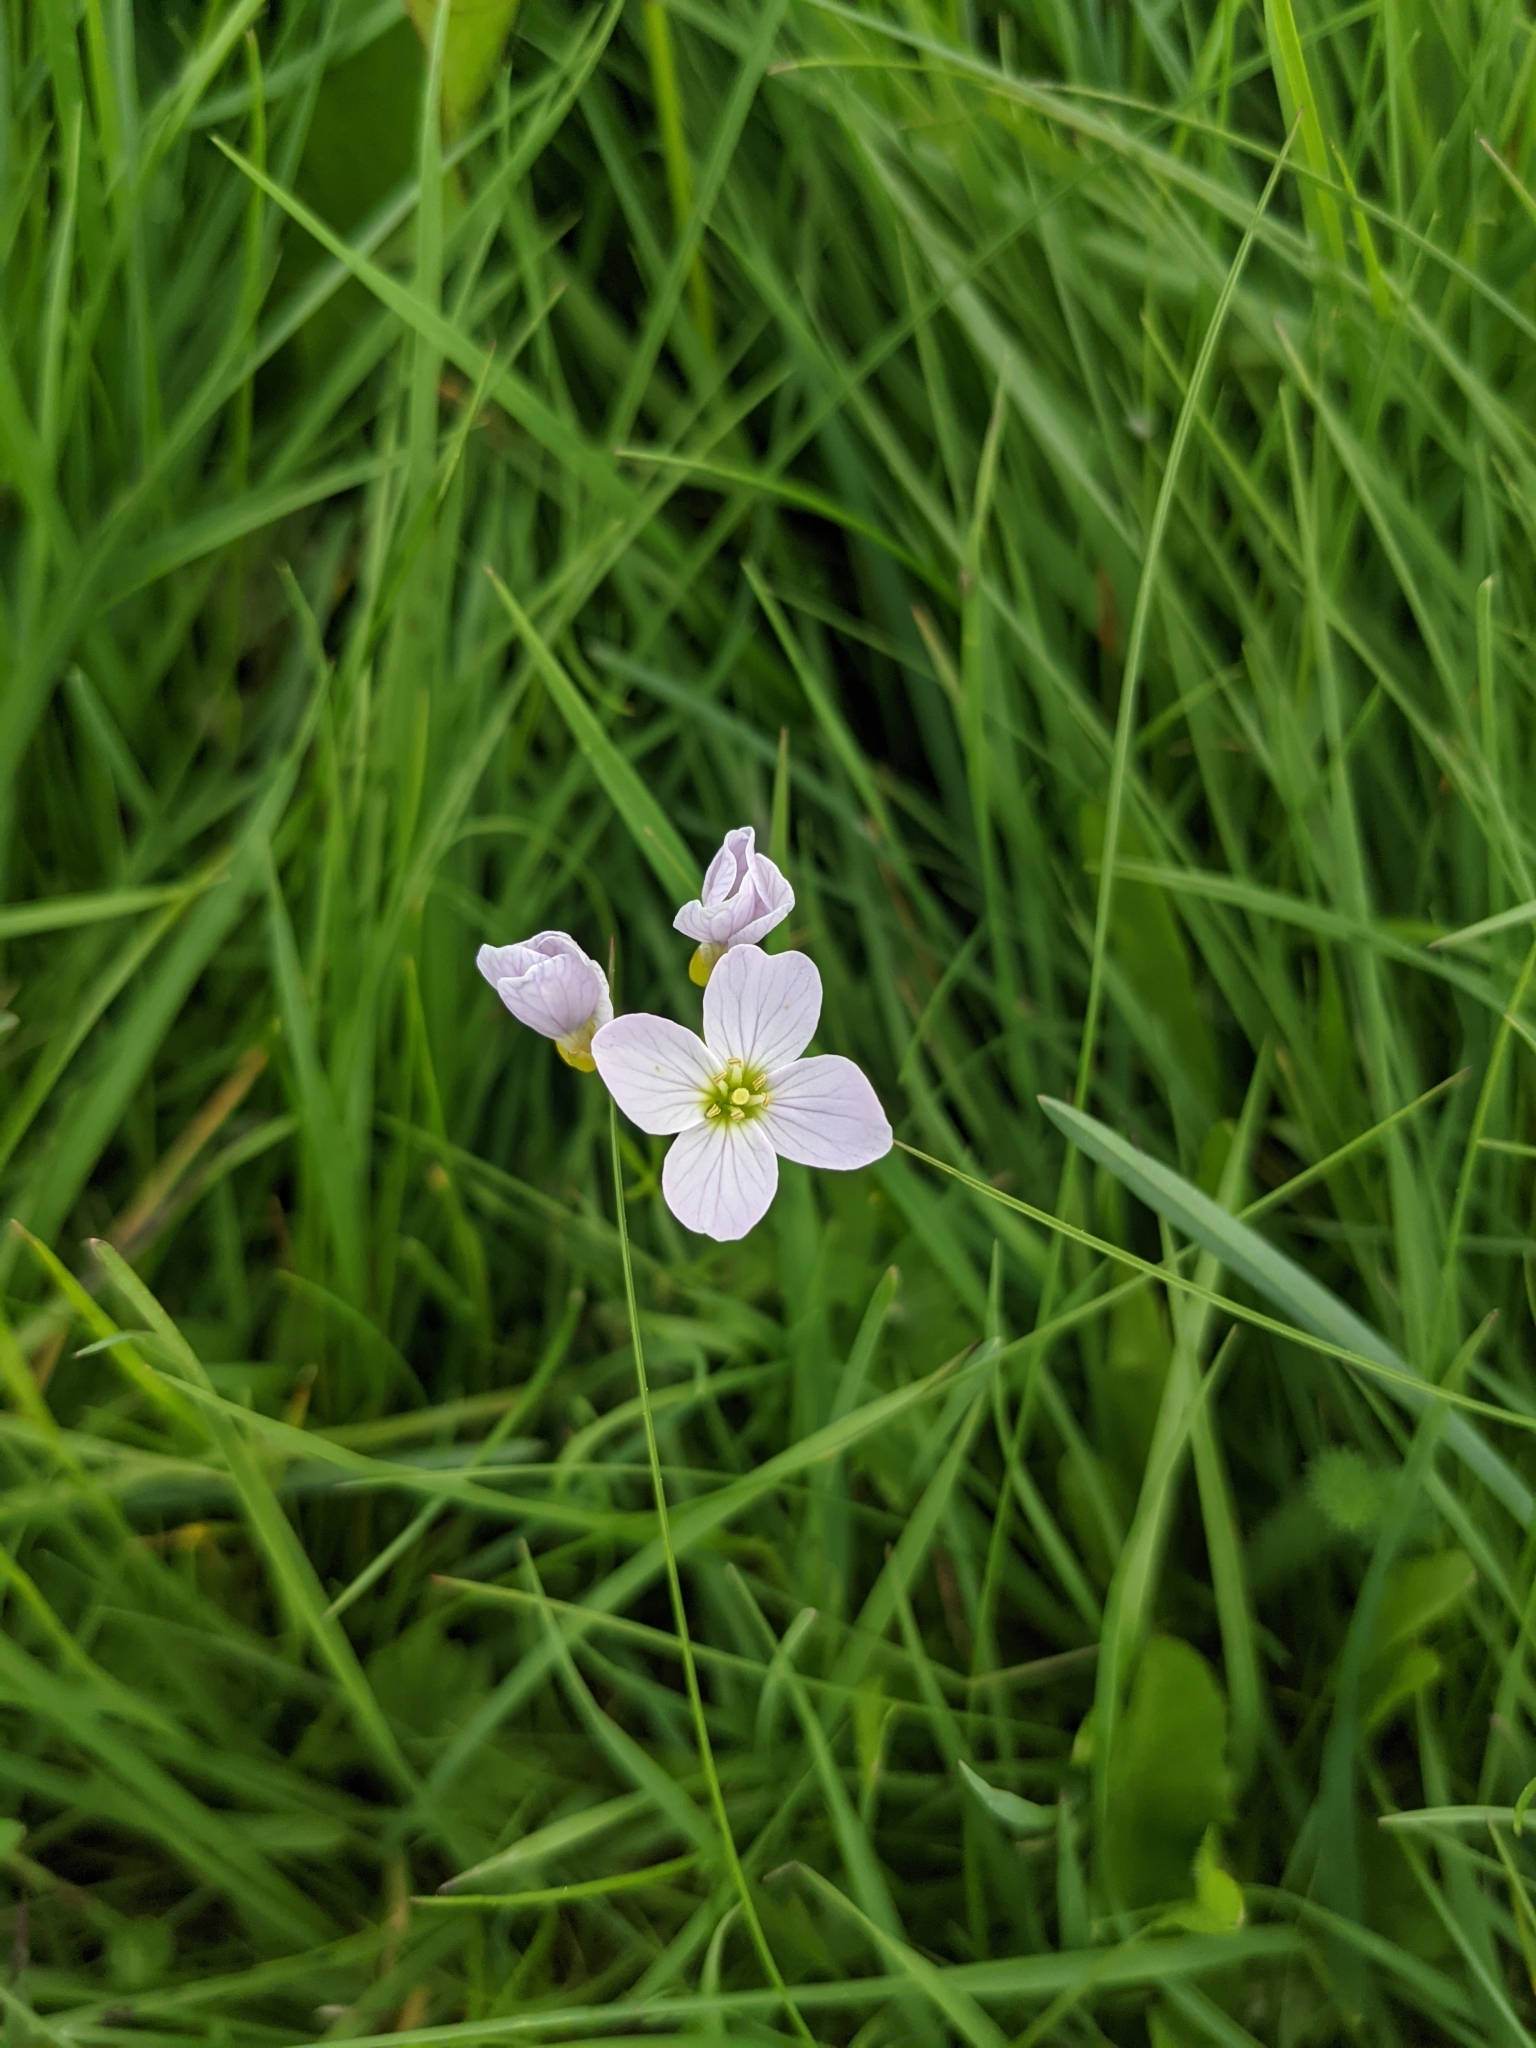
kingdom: Plantae
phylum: Tracheophyta
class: Magnoliopsida
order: Brassicales
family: Brassicaceae
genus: Cardamine
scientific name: Cardamine pratensis
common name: Cuckoo flower
